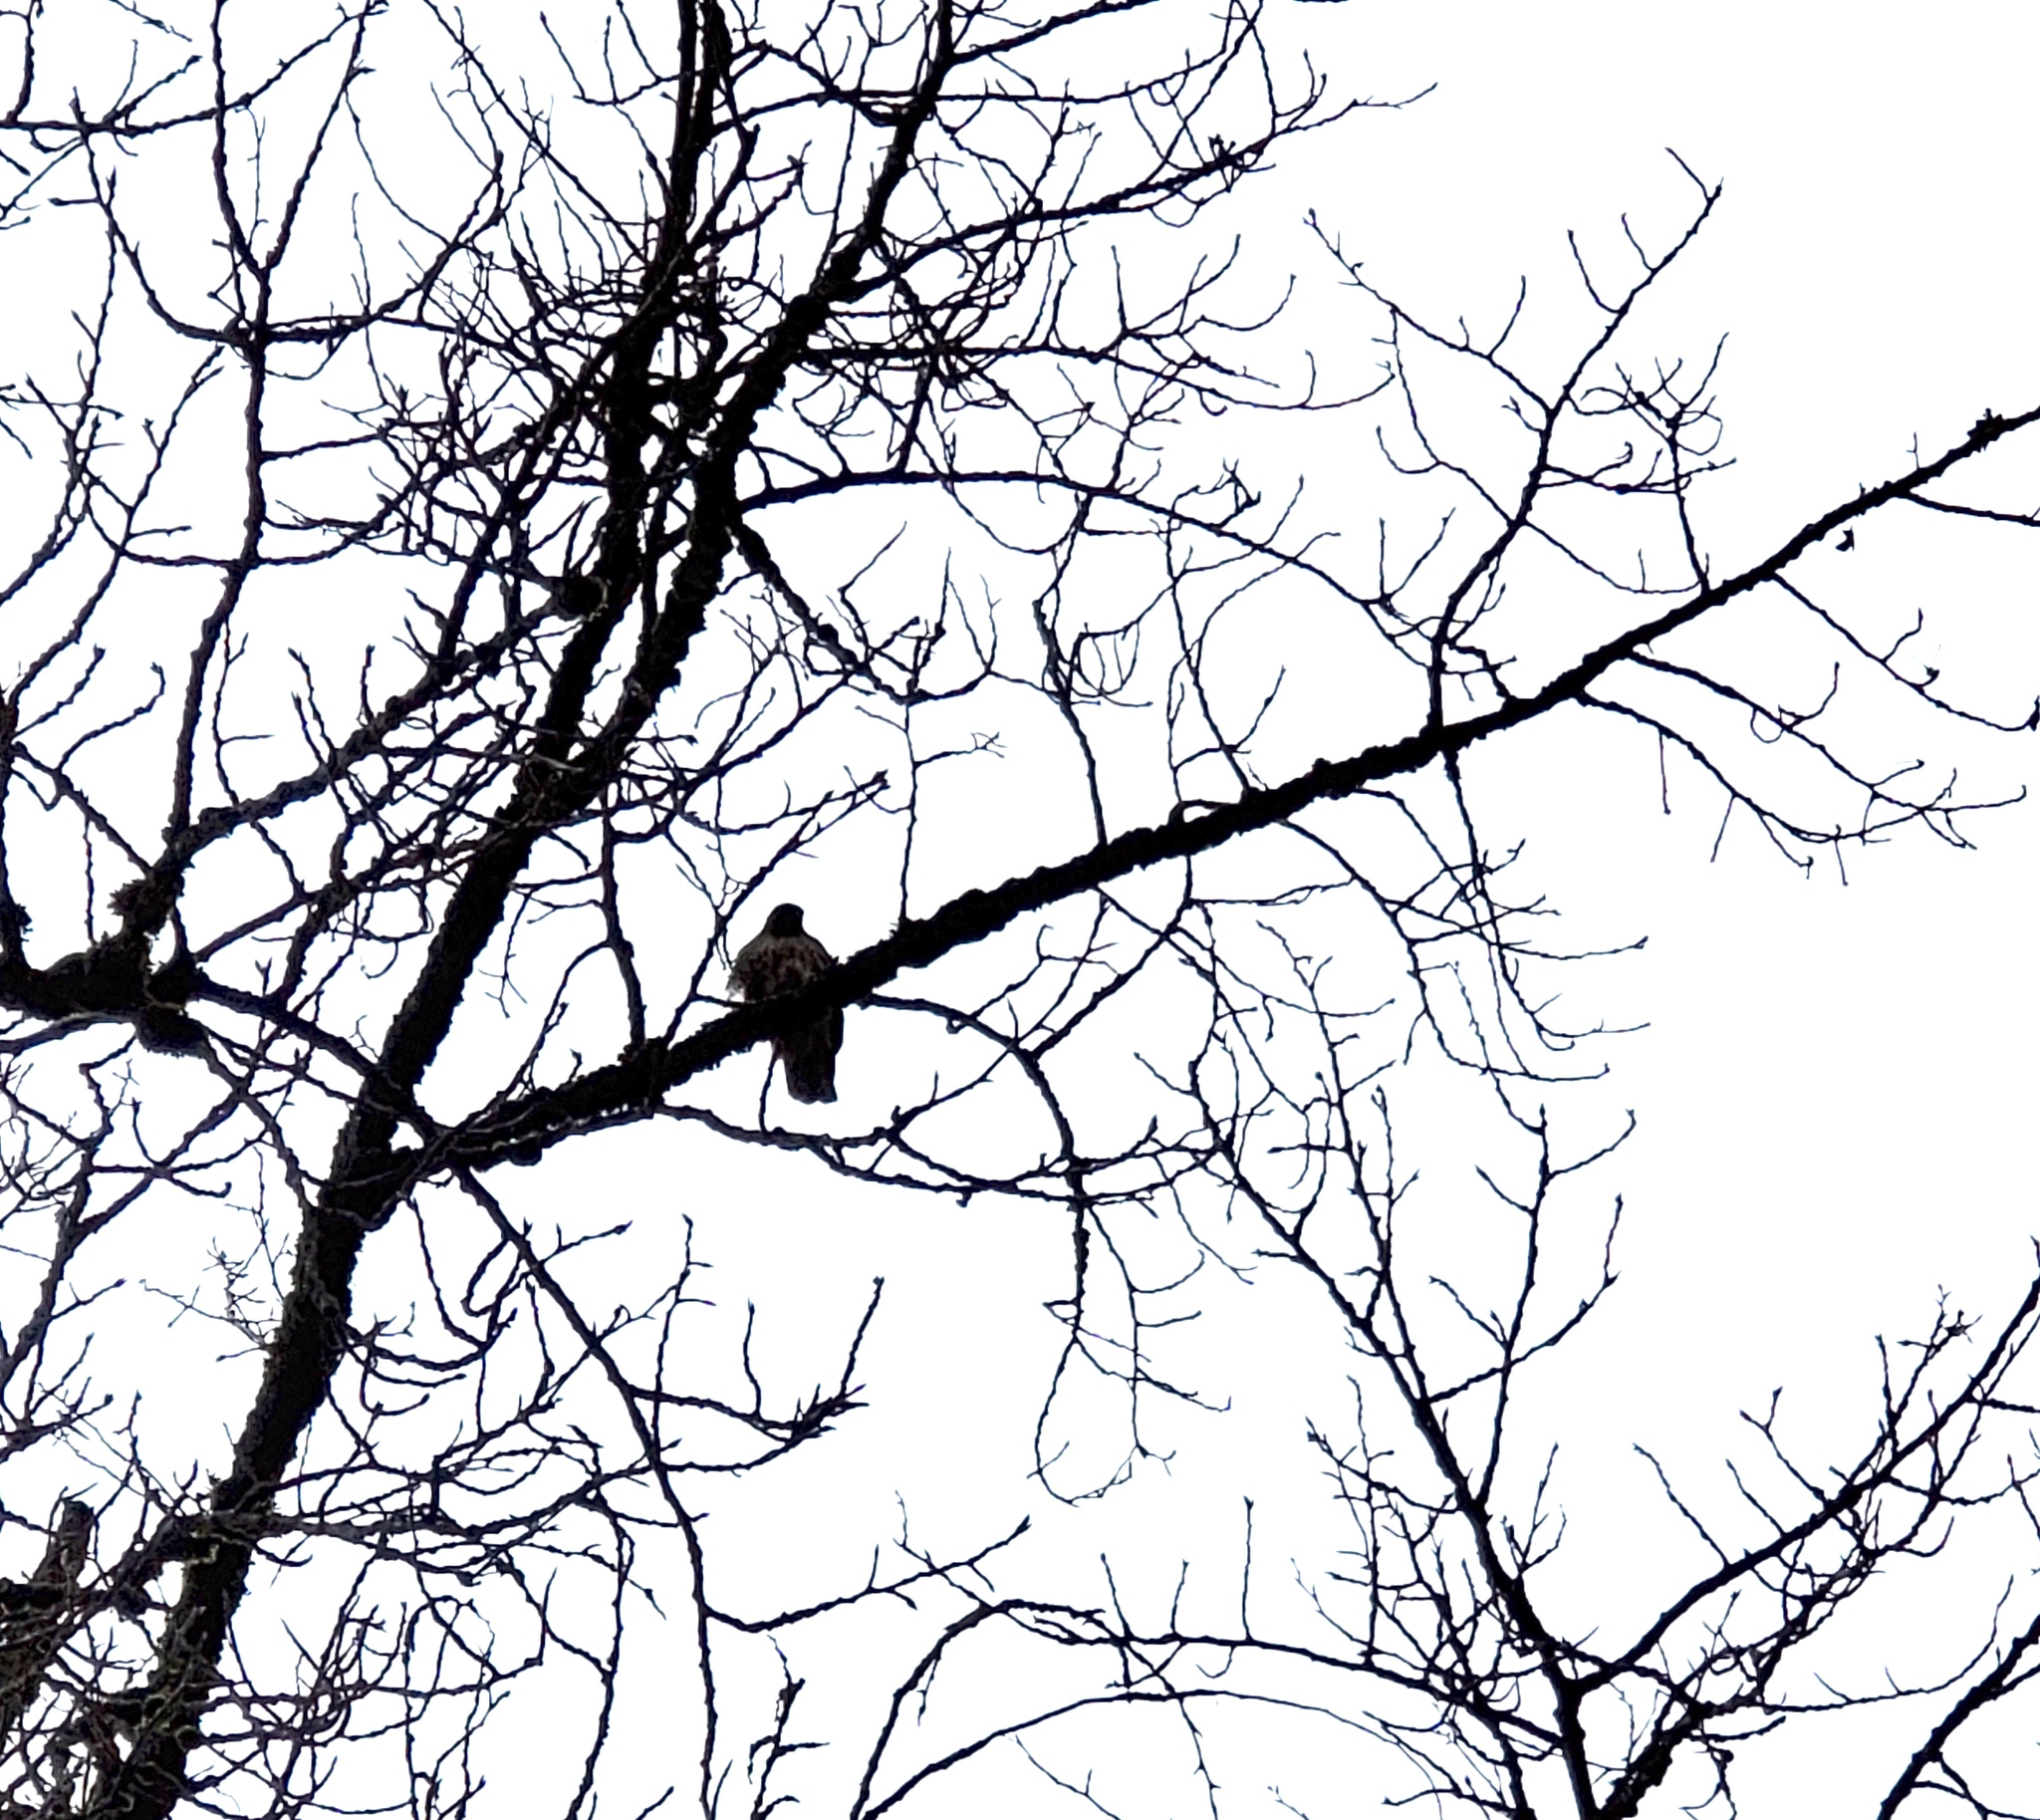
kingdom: Animalia
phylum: Chordata
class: Aves
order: Accipitriformes
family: Accipitridae
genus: Buteo
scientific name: Buteo jamaicensis
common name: Red-tailed hawk
